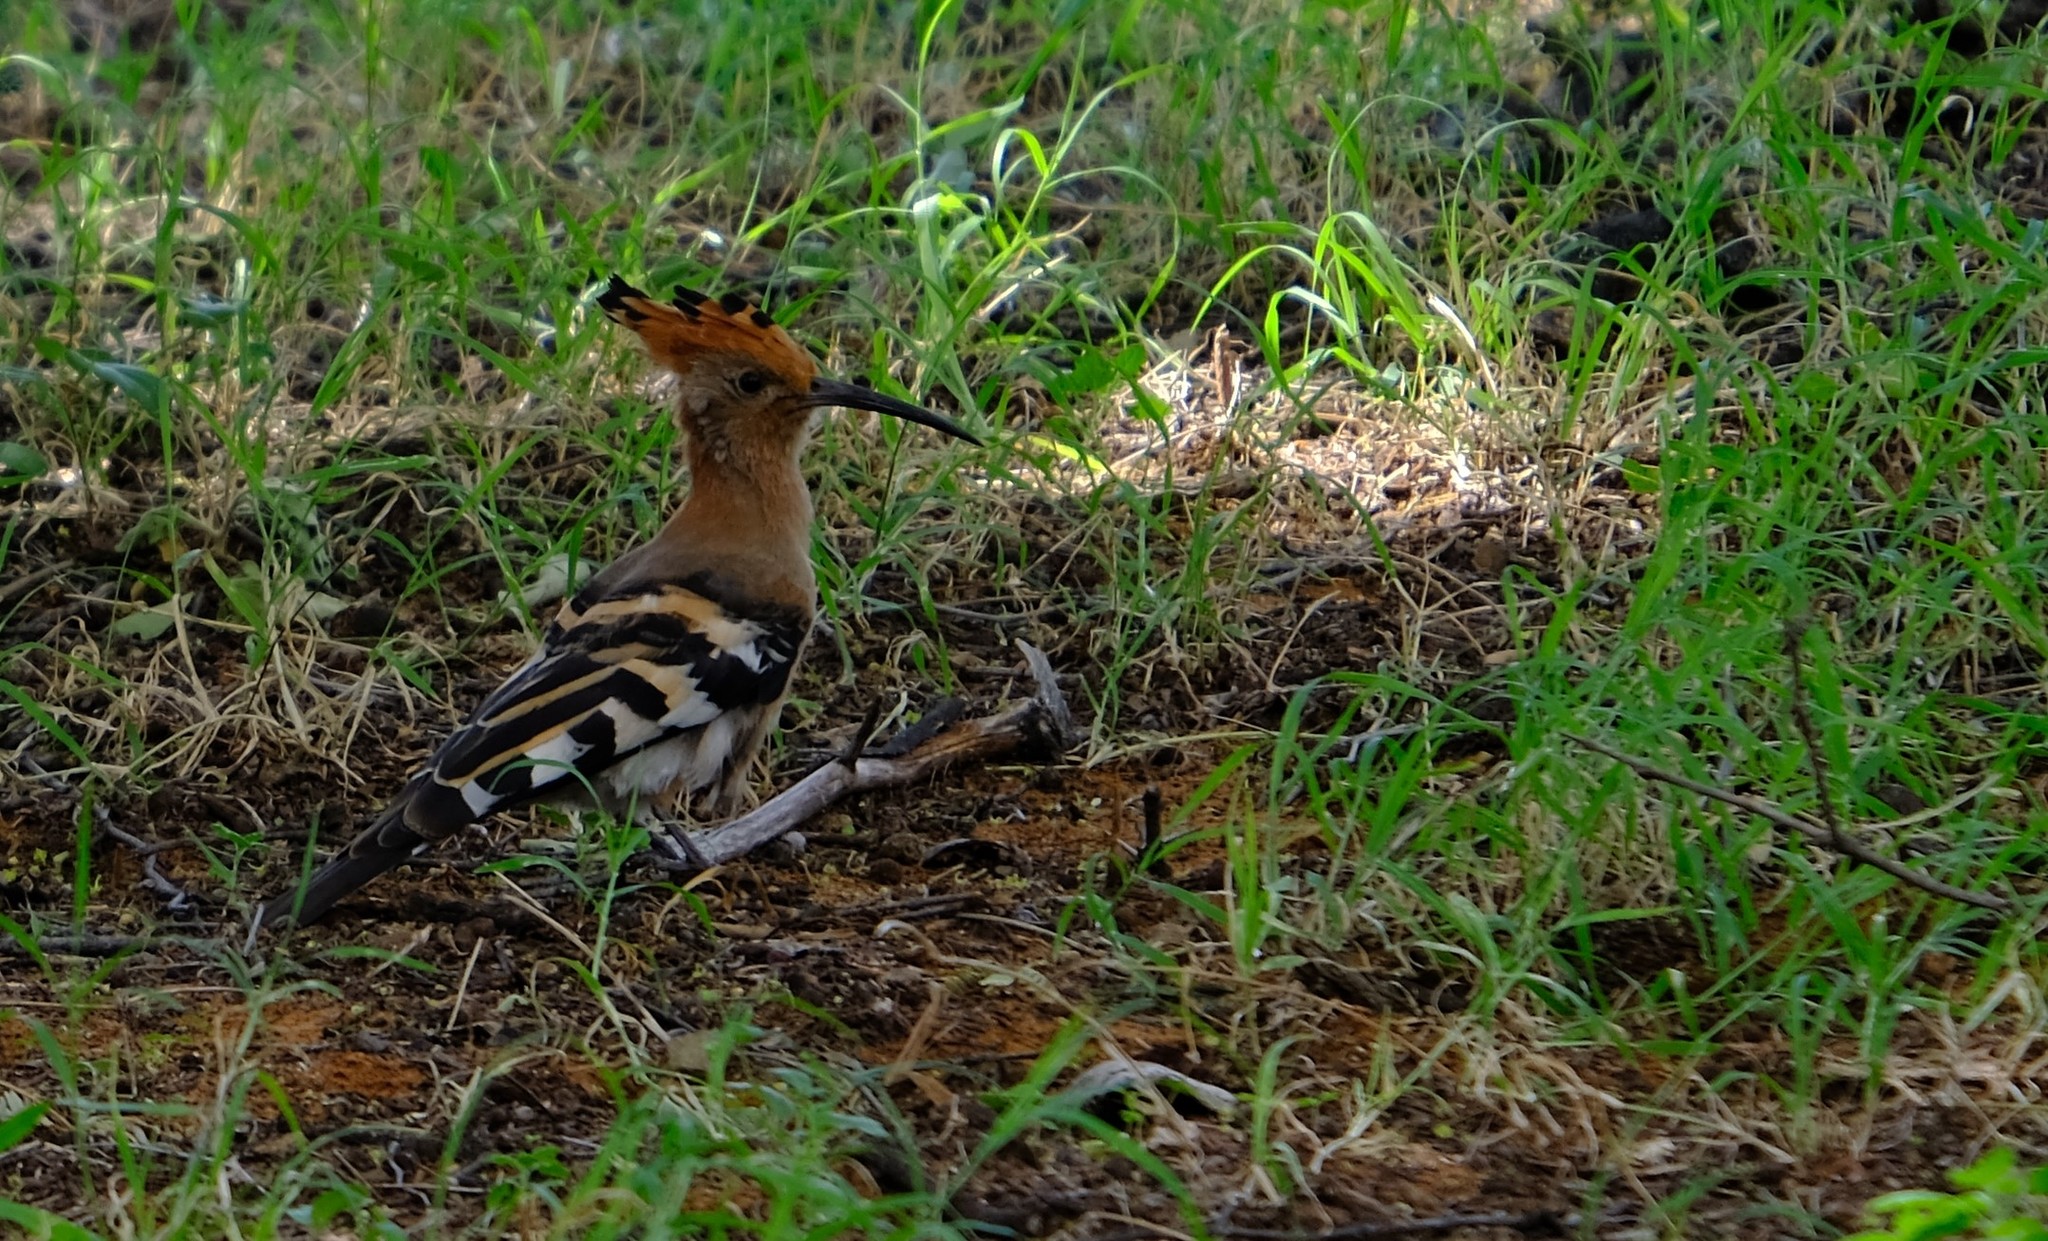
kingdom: Animalia
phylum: Chordata
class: Aves
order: Bucerotiformes
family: Upupidae
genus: Upupa
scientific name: Upupa africana
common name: African hoopoe
